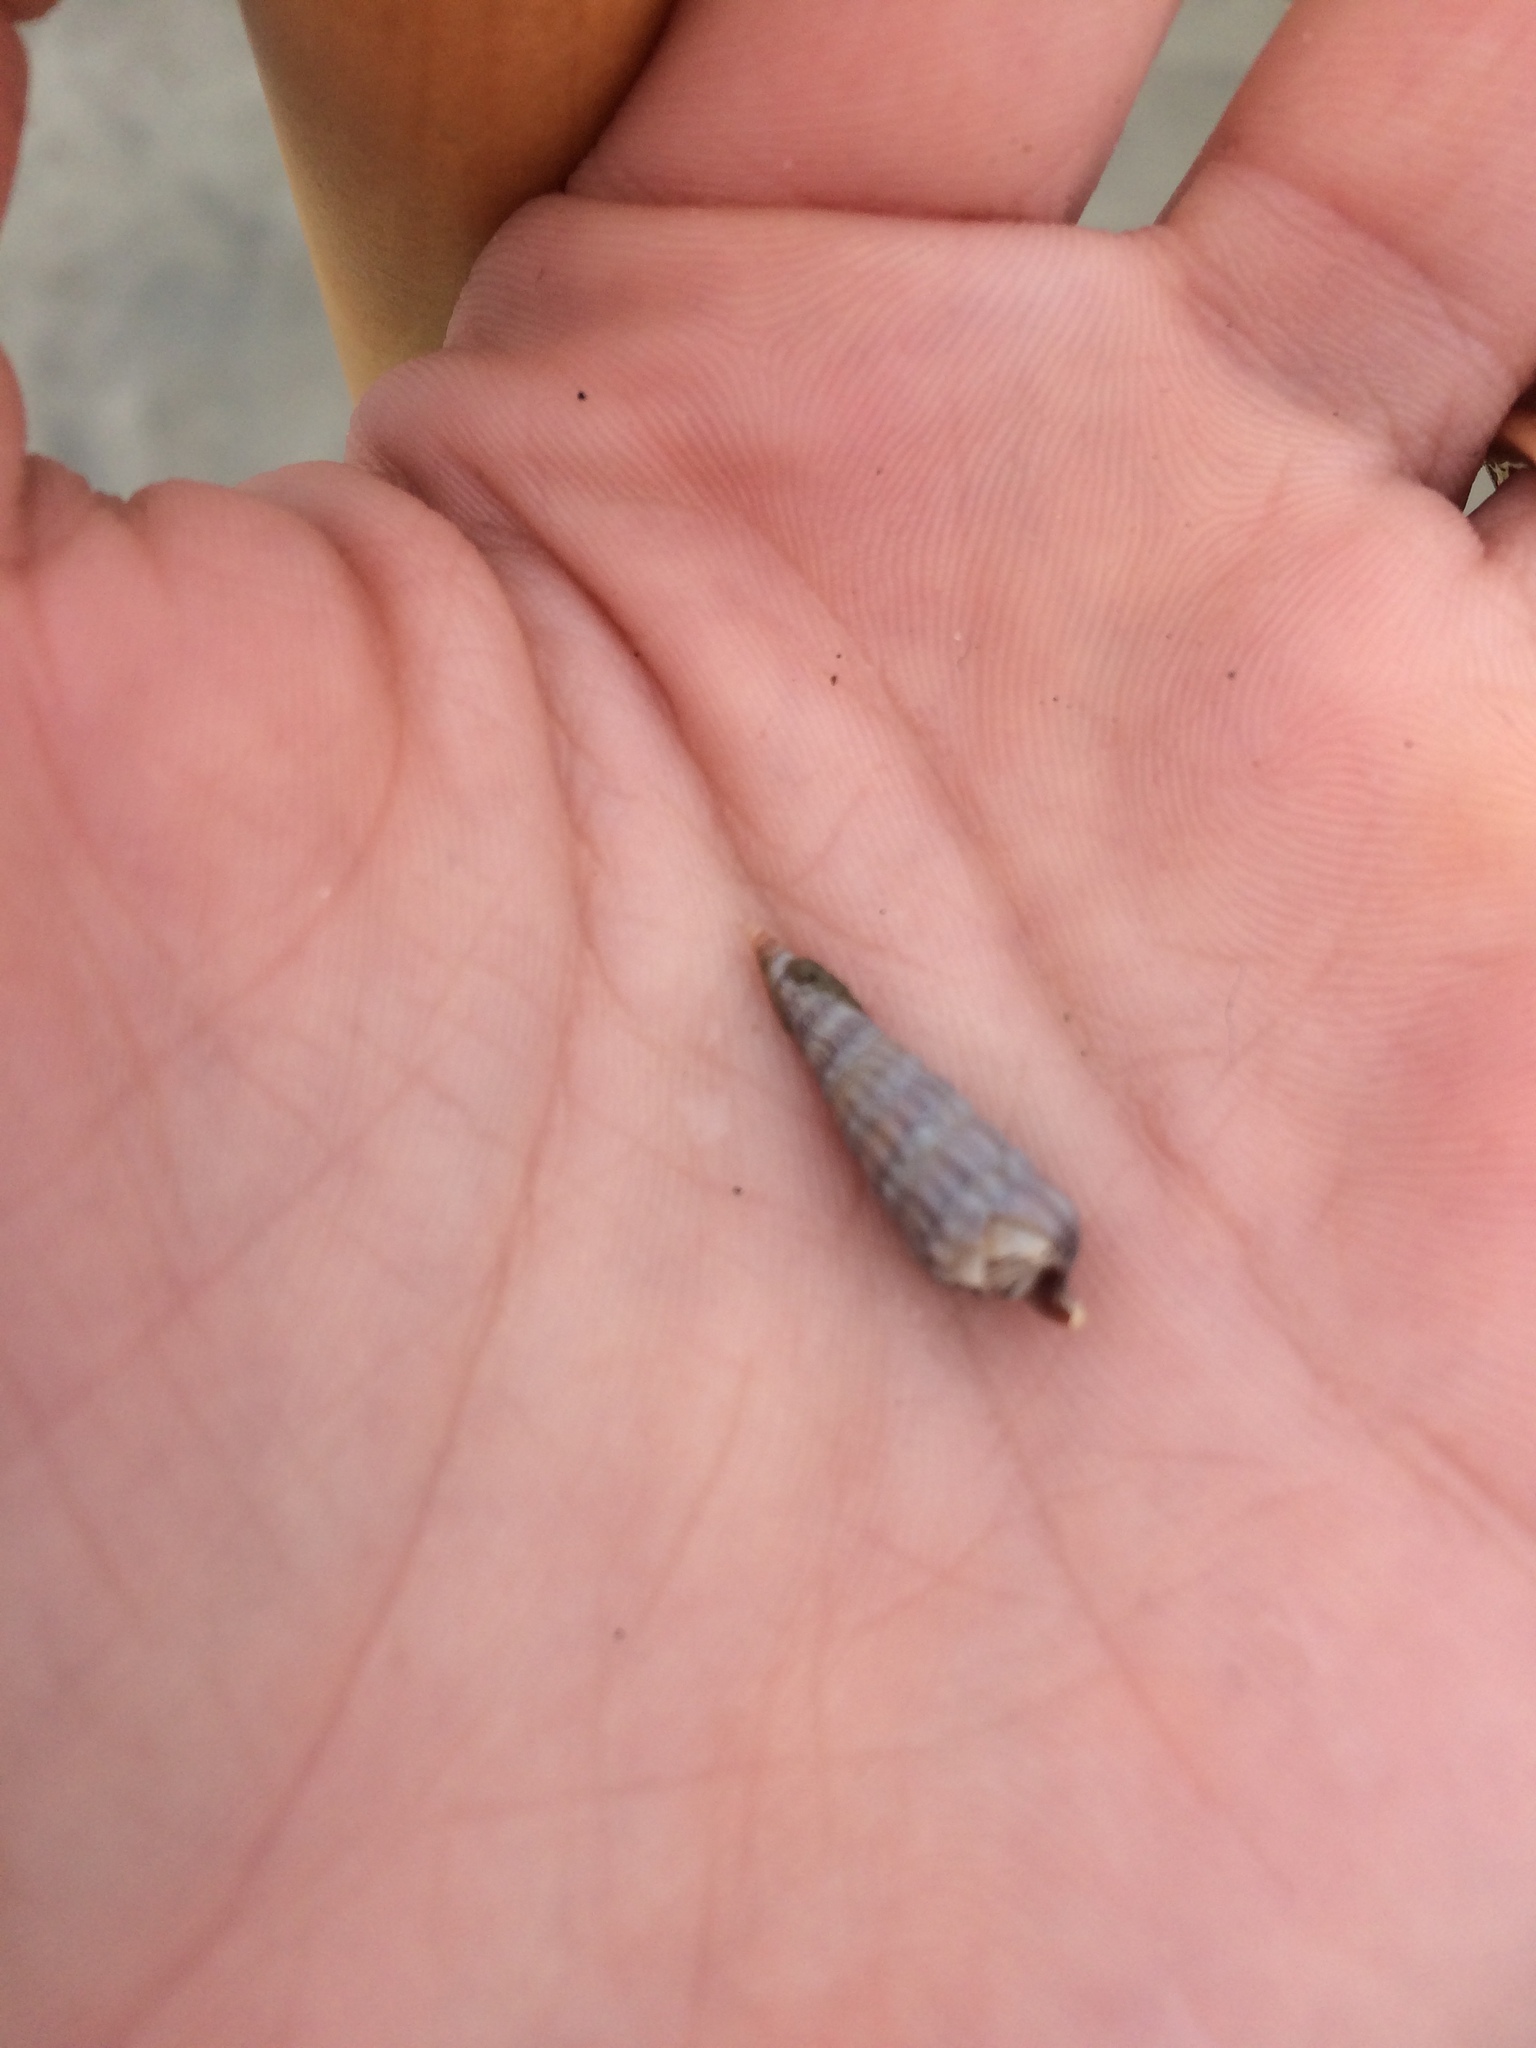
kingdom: Animalia
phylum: Mollusca
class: Gastropoda
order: Neogastropoda
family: Terebridae
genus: Neoterebra
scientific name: Neoterebra dislocata
